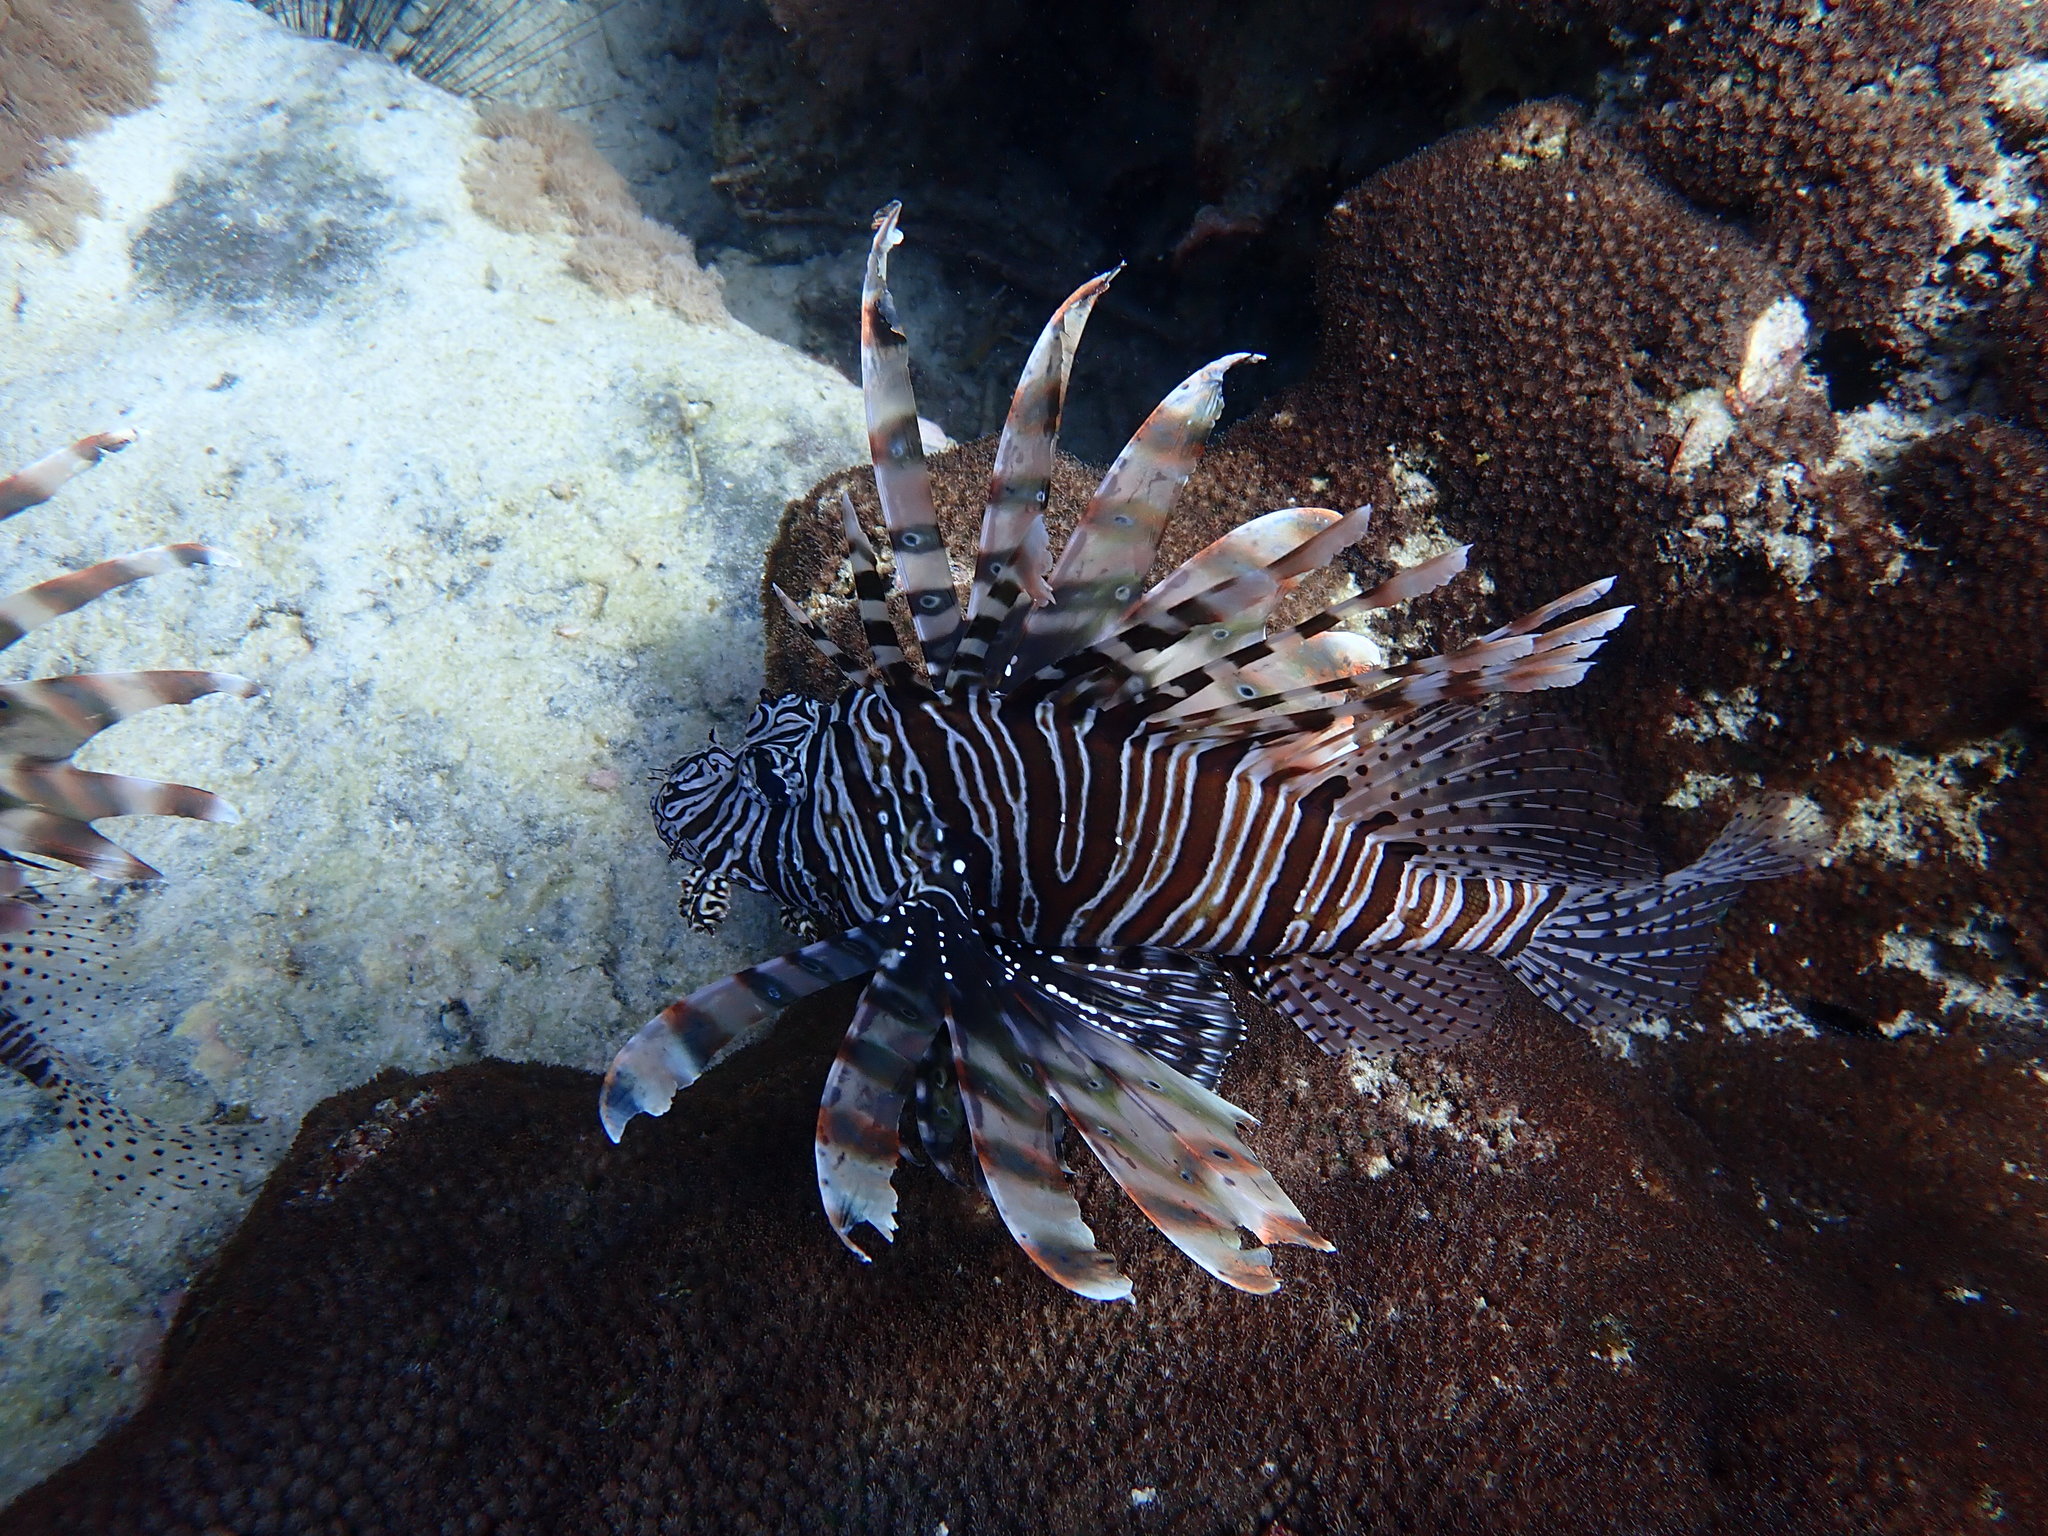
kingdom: Animalia
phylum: Chordata
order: Scorpaeniformes
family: Scorpaenidae
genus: Pterois
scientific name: Pterois miles
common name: Devil firefish
